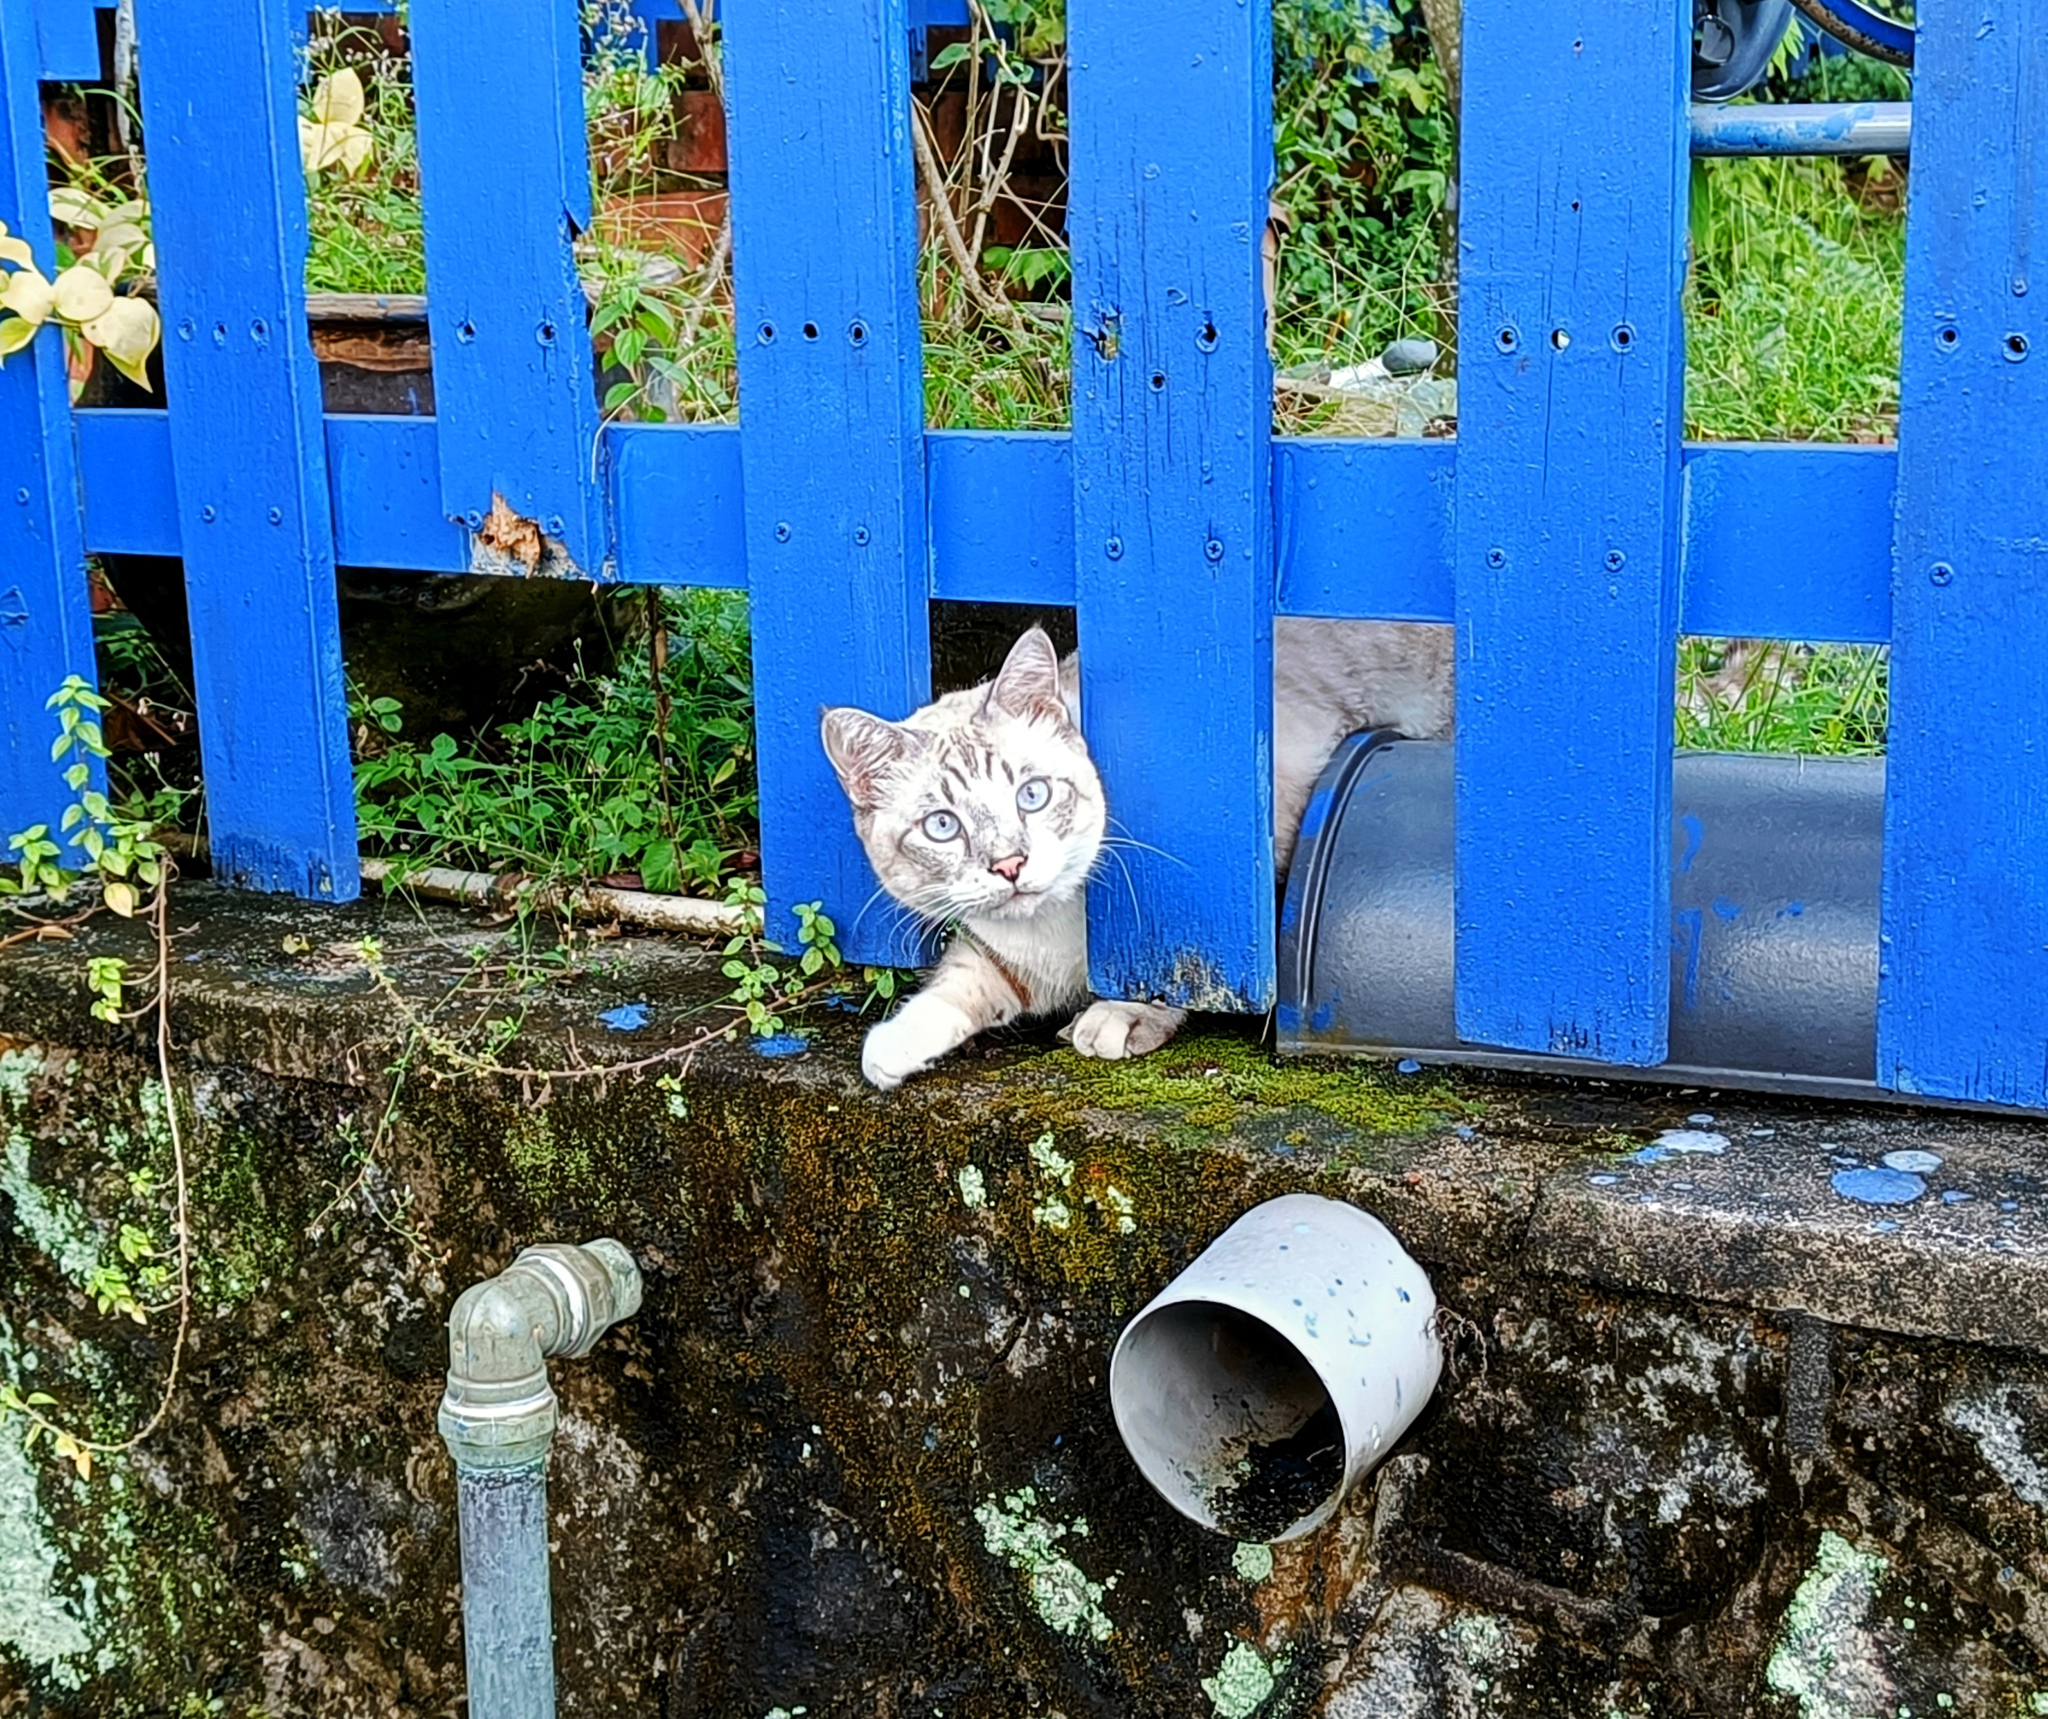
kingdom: Animalia
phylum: Chordata
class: Mammalia
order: Carnivora
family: Felidae
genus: Felis
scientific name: Felis catus
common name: Domestic cat
